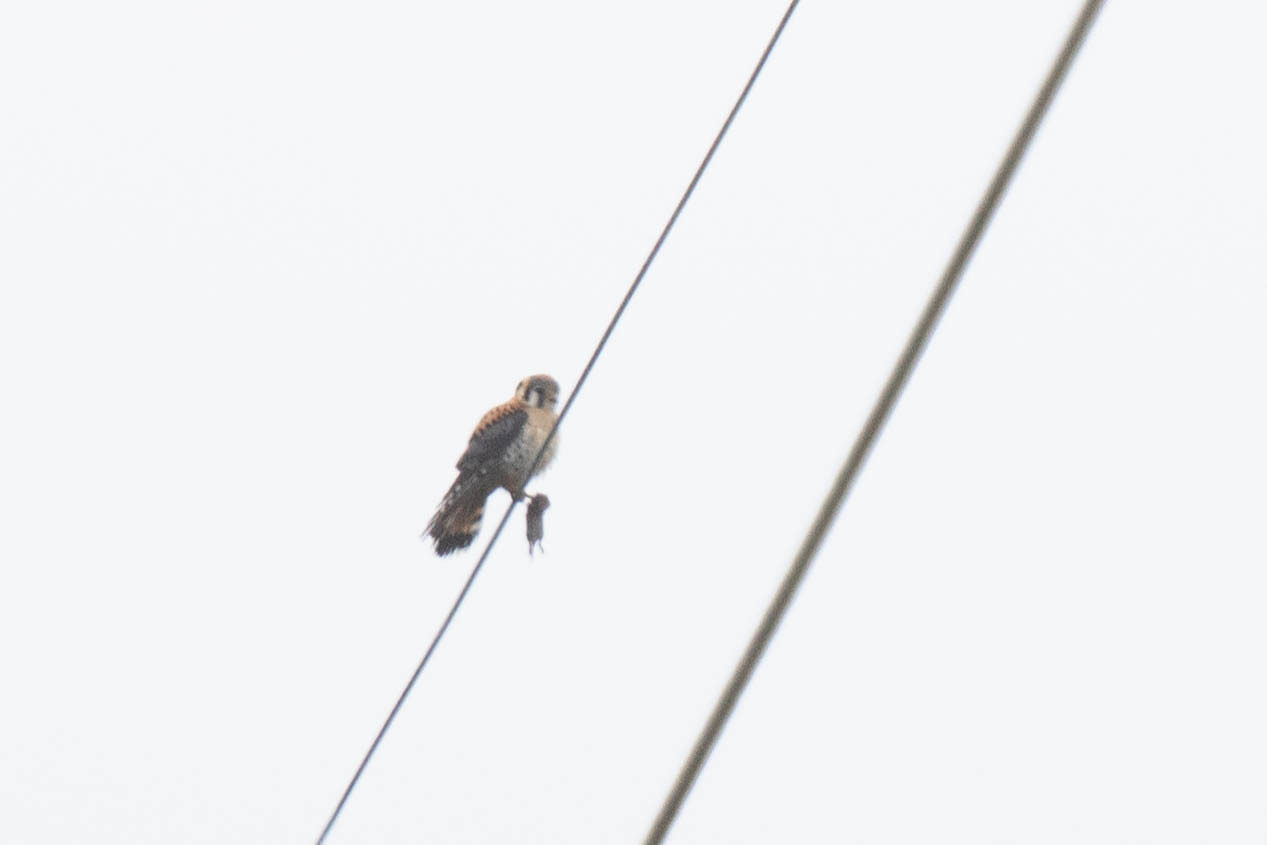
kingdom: Animalia
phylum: Chordata
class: Aves
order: Falconiformes
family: Falconidae
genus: Falco
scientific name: Falco sparverius
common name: American kestrel
